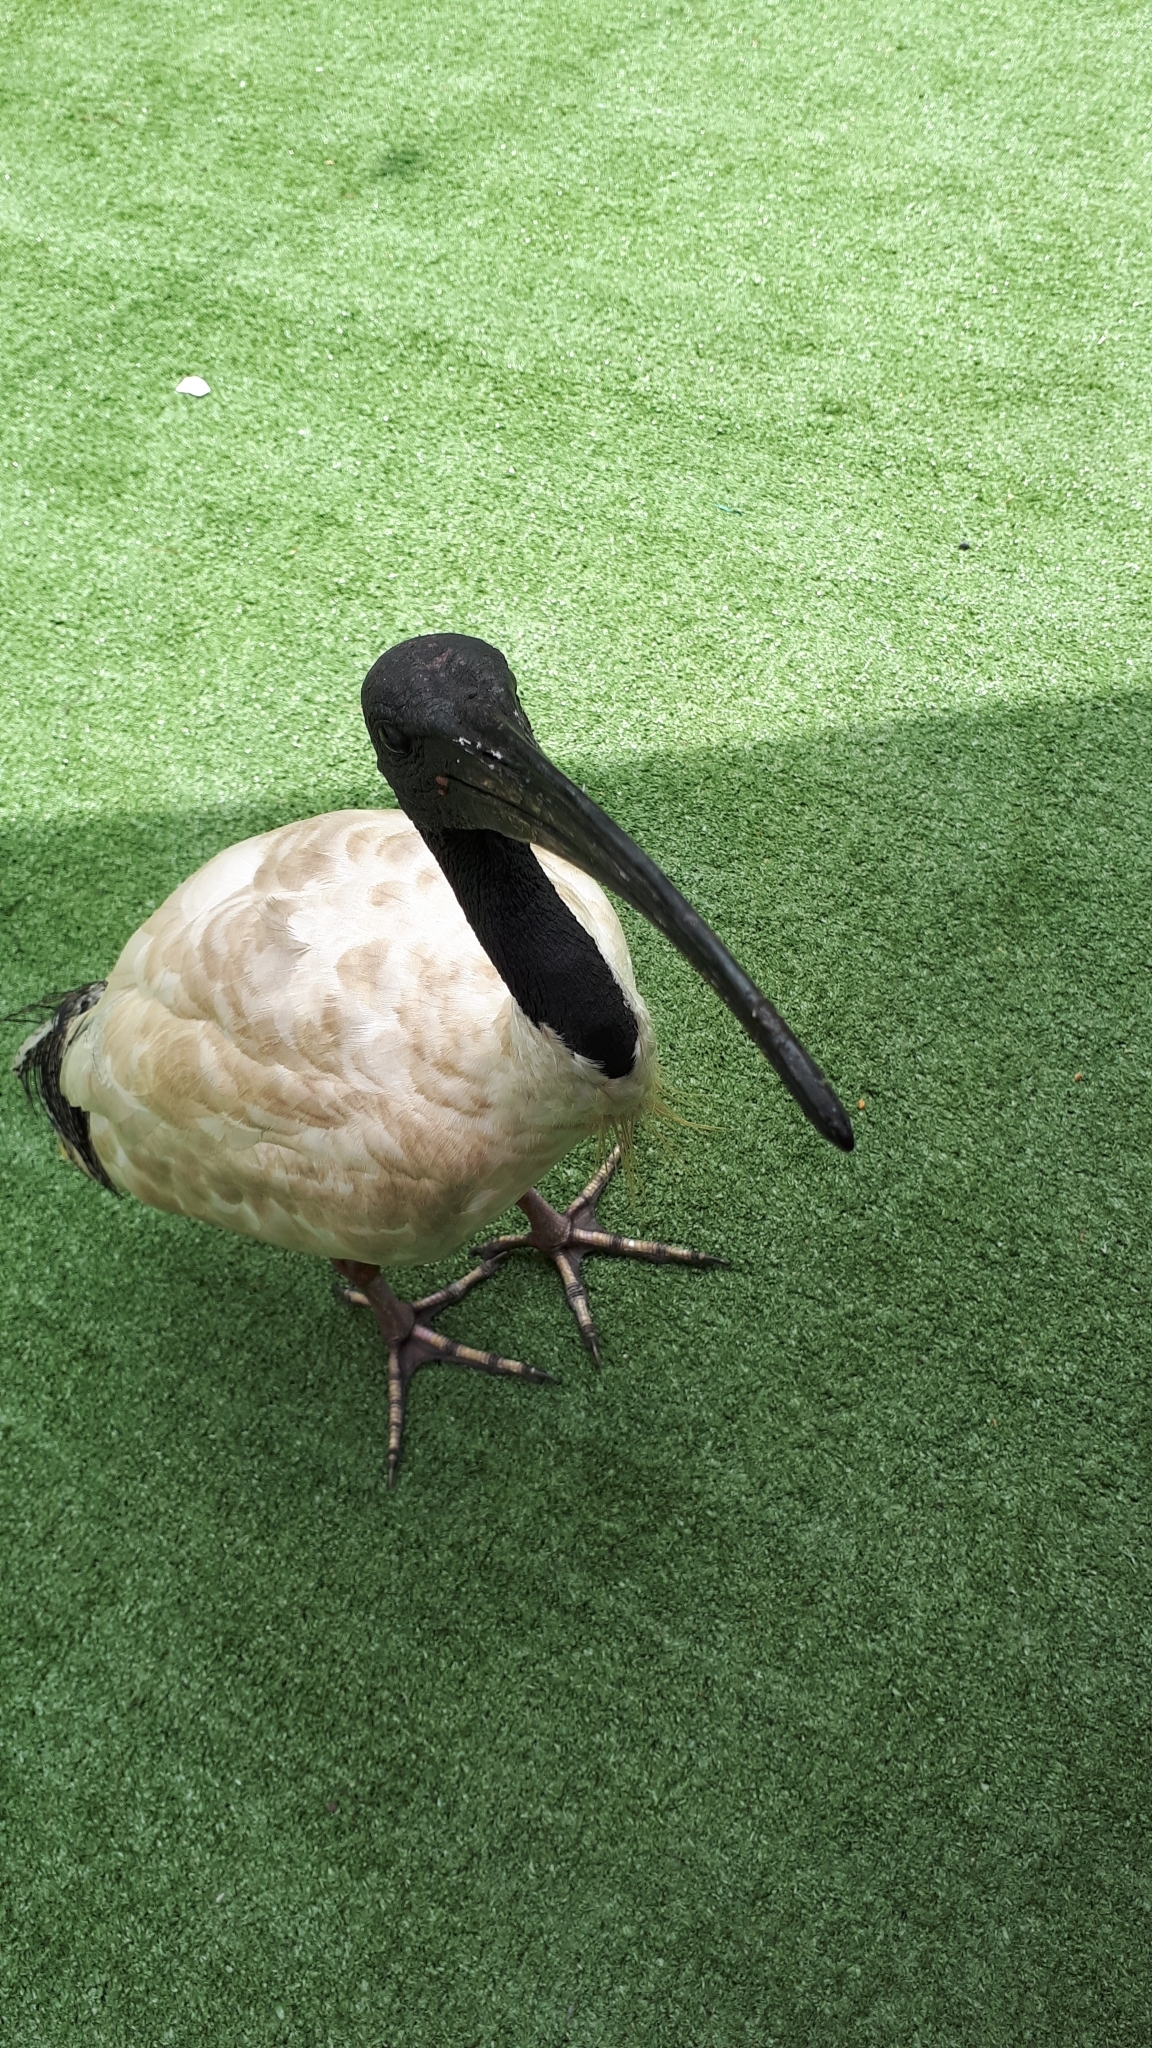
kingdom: Animalia
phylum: Chordata
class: Aves
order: Pelecaniformes
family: Threskiornithidae
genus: Threskiornis
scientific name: Threskiornis molucca
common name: Australian white ibis
